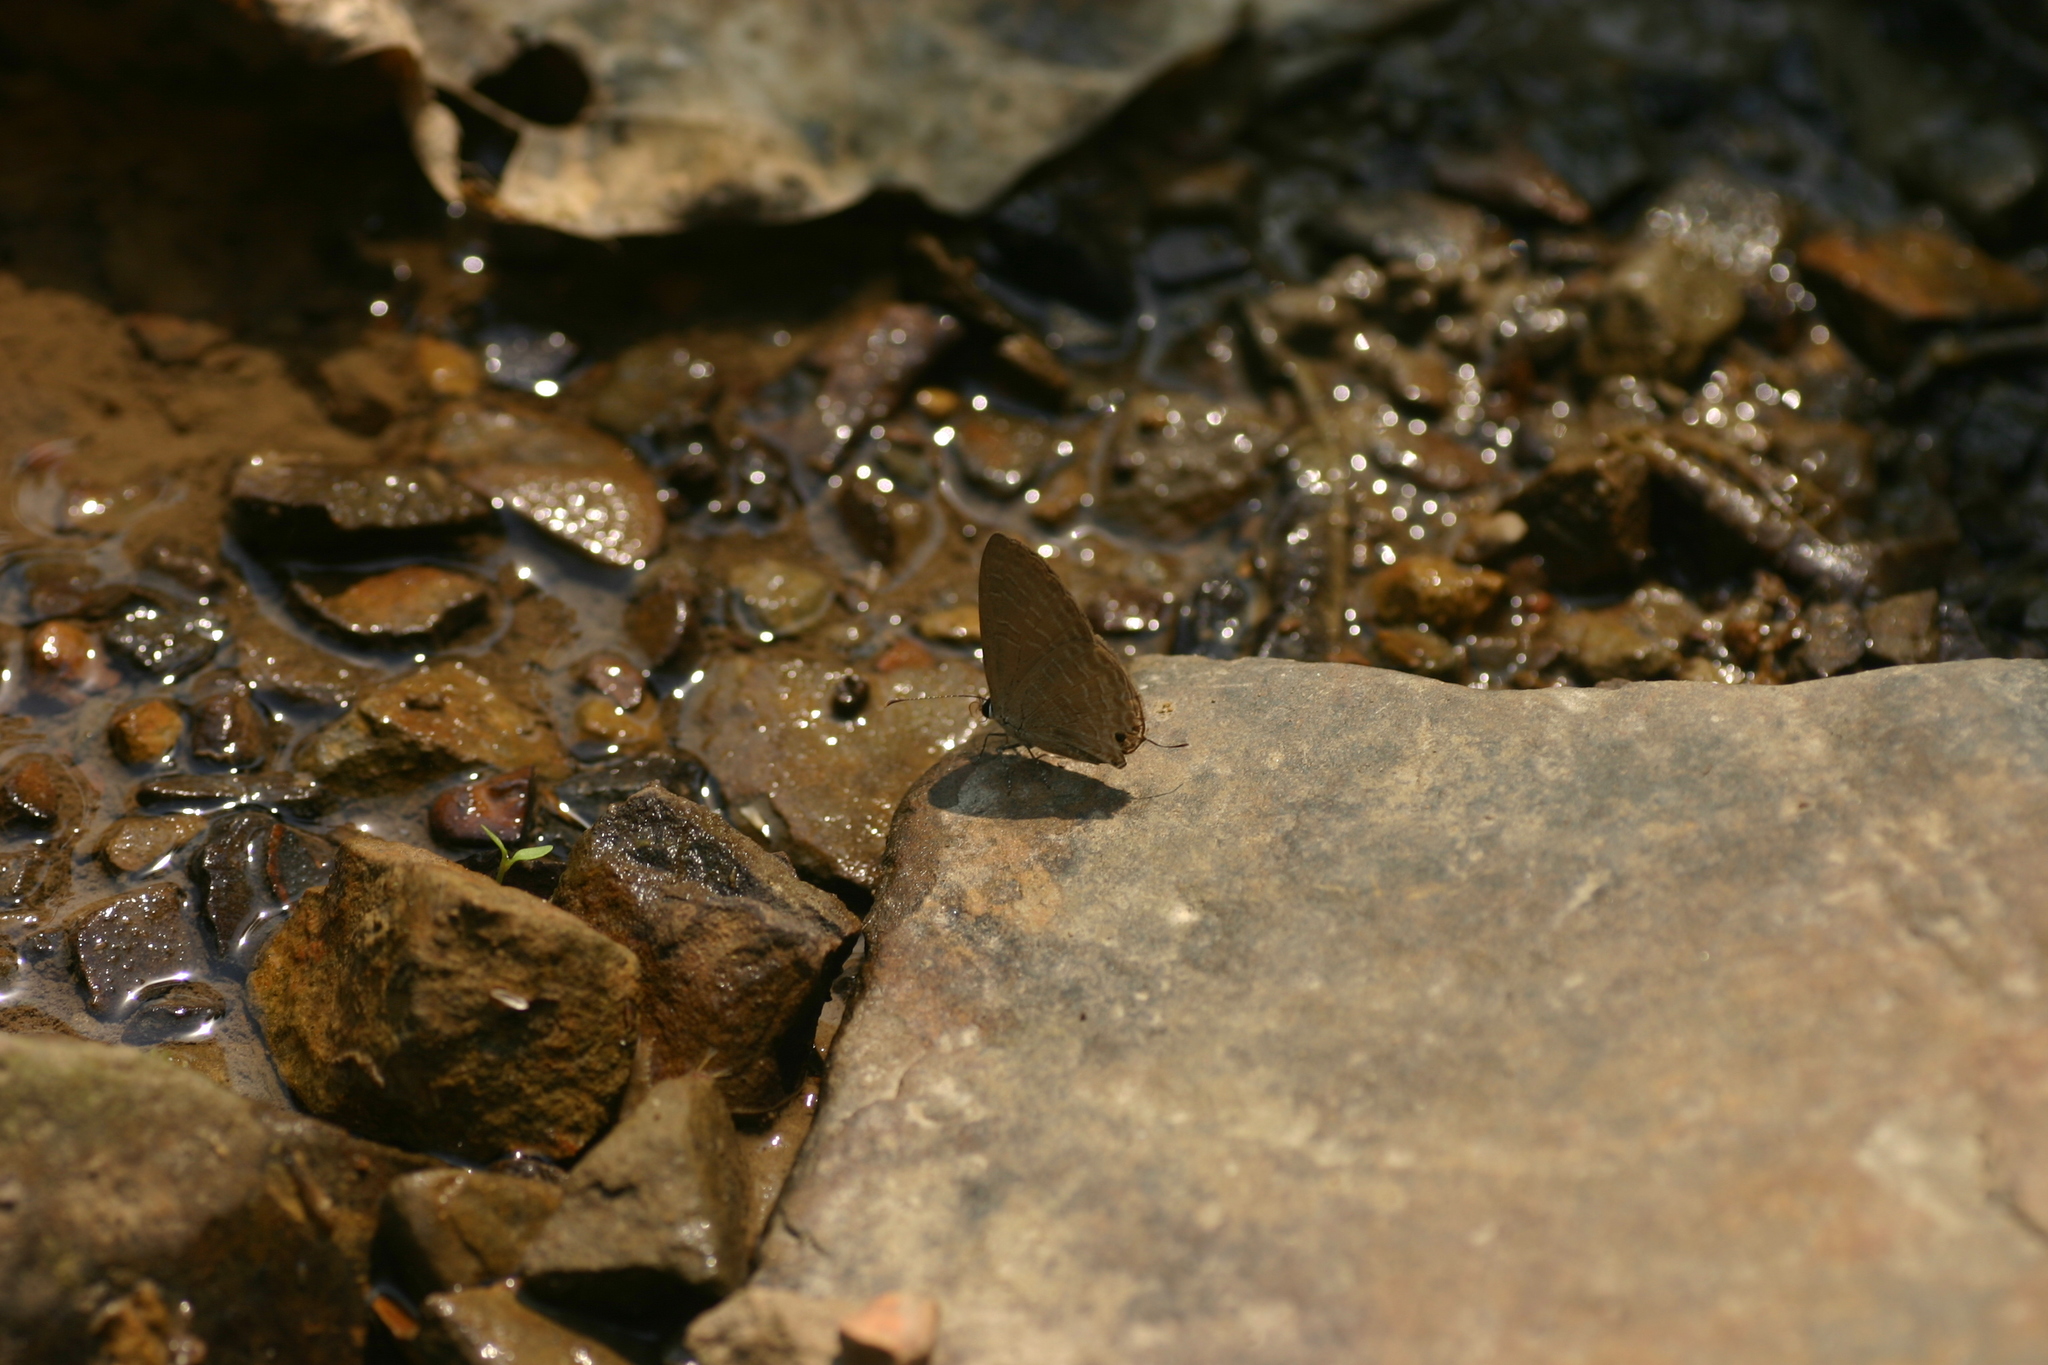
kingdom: Animalia
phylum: Arthropoda
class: Insecta
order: Lepidoptera
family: Lycaenidae
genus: Jamides
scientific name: Jamides bochus
